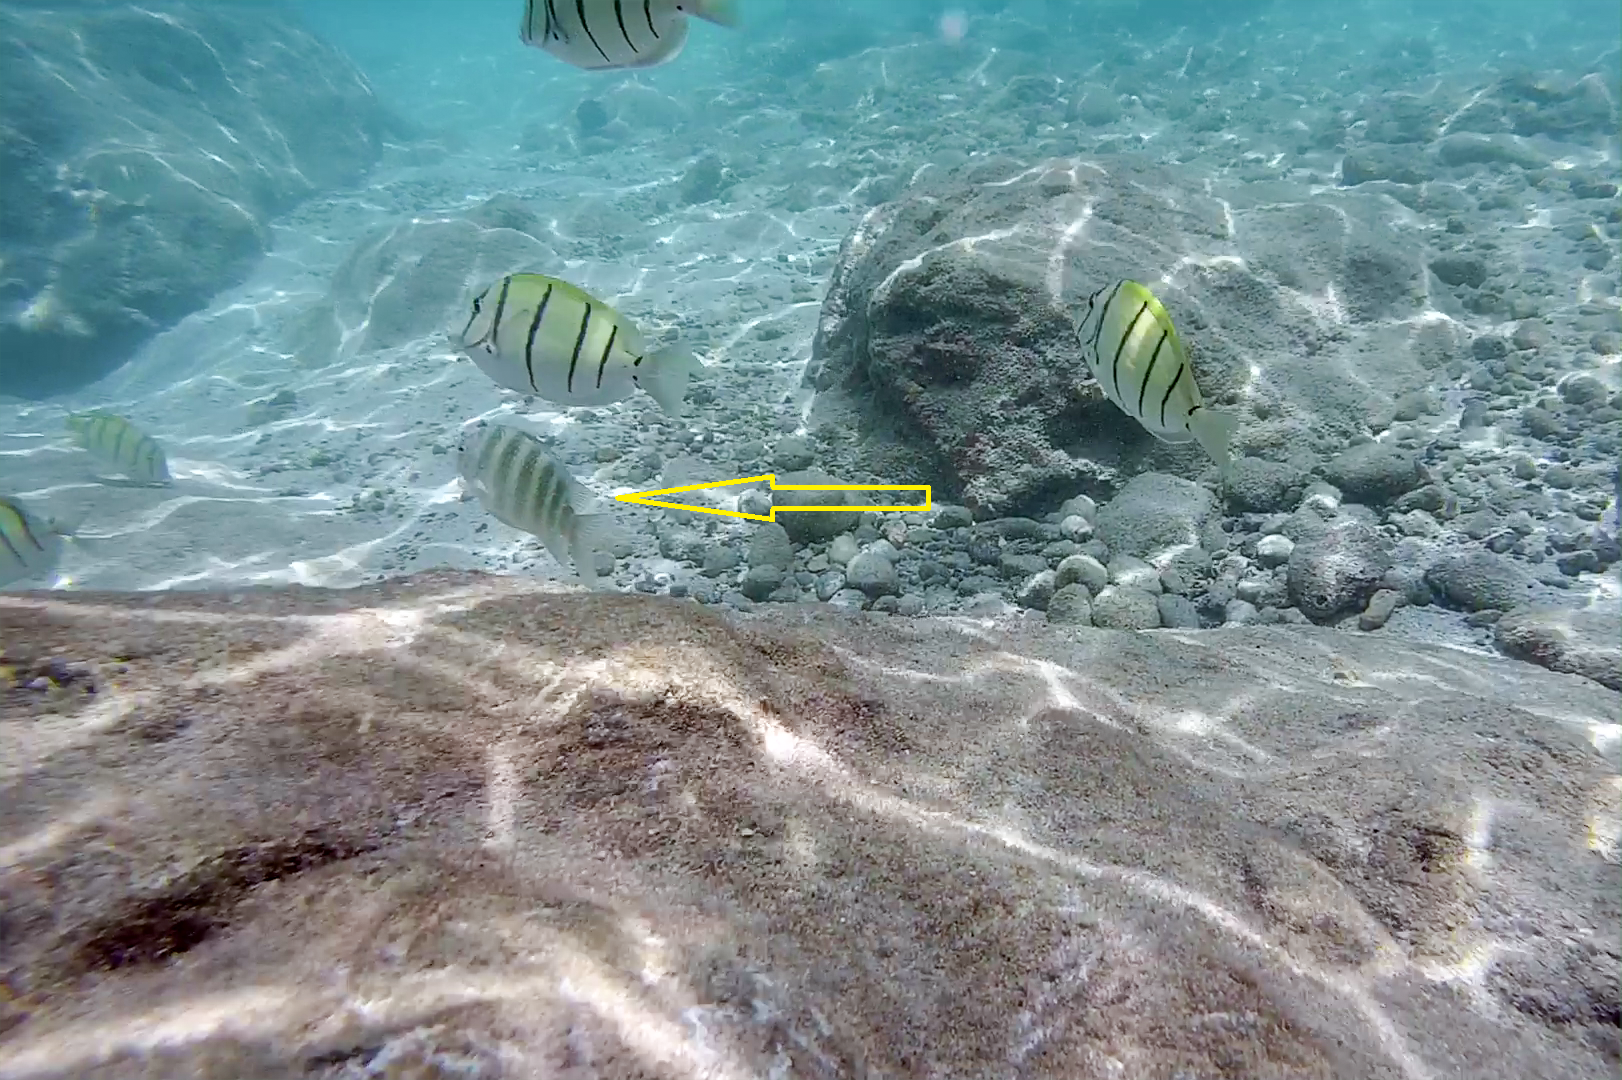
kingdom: Animalia
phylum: Chordata
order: Perciformes
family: Pomacentridae
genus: Abudefduf
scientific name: Abudefduf septemfasciatus
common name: Banded sergeant
